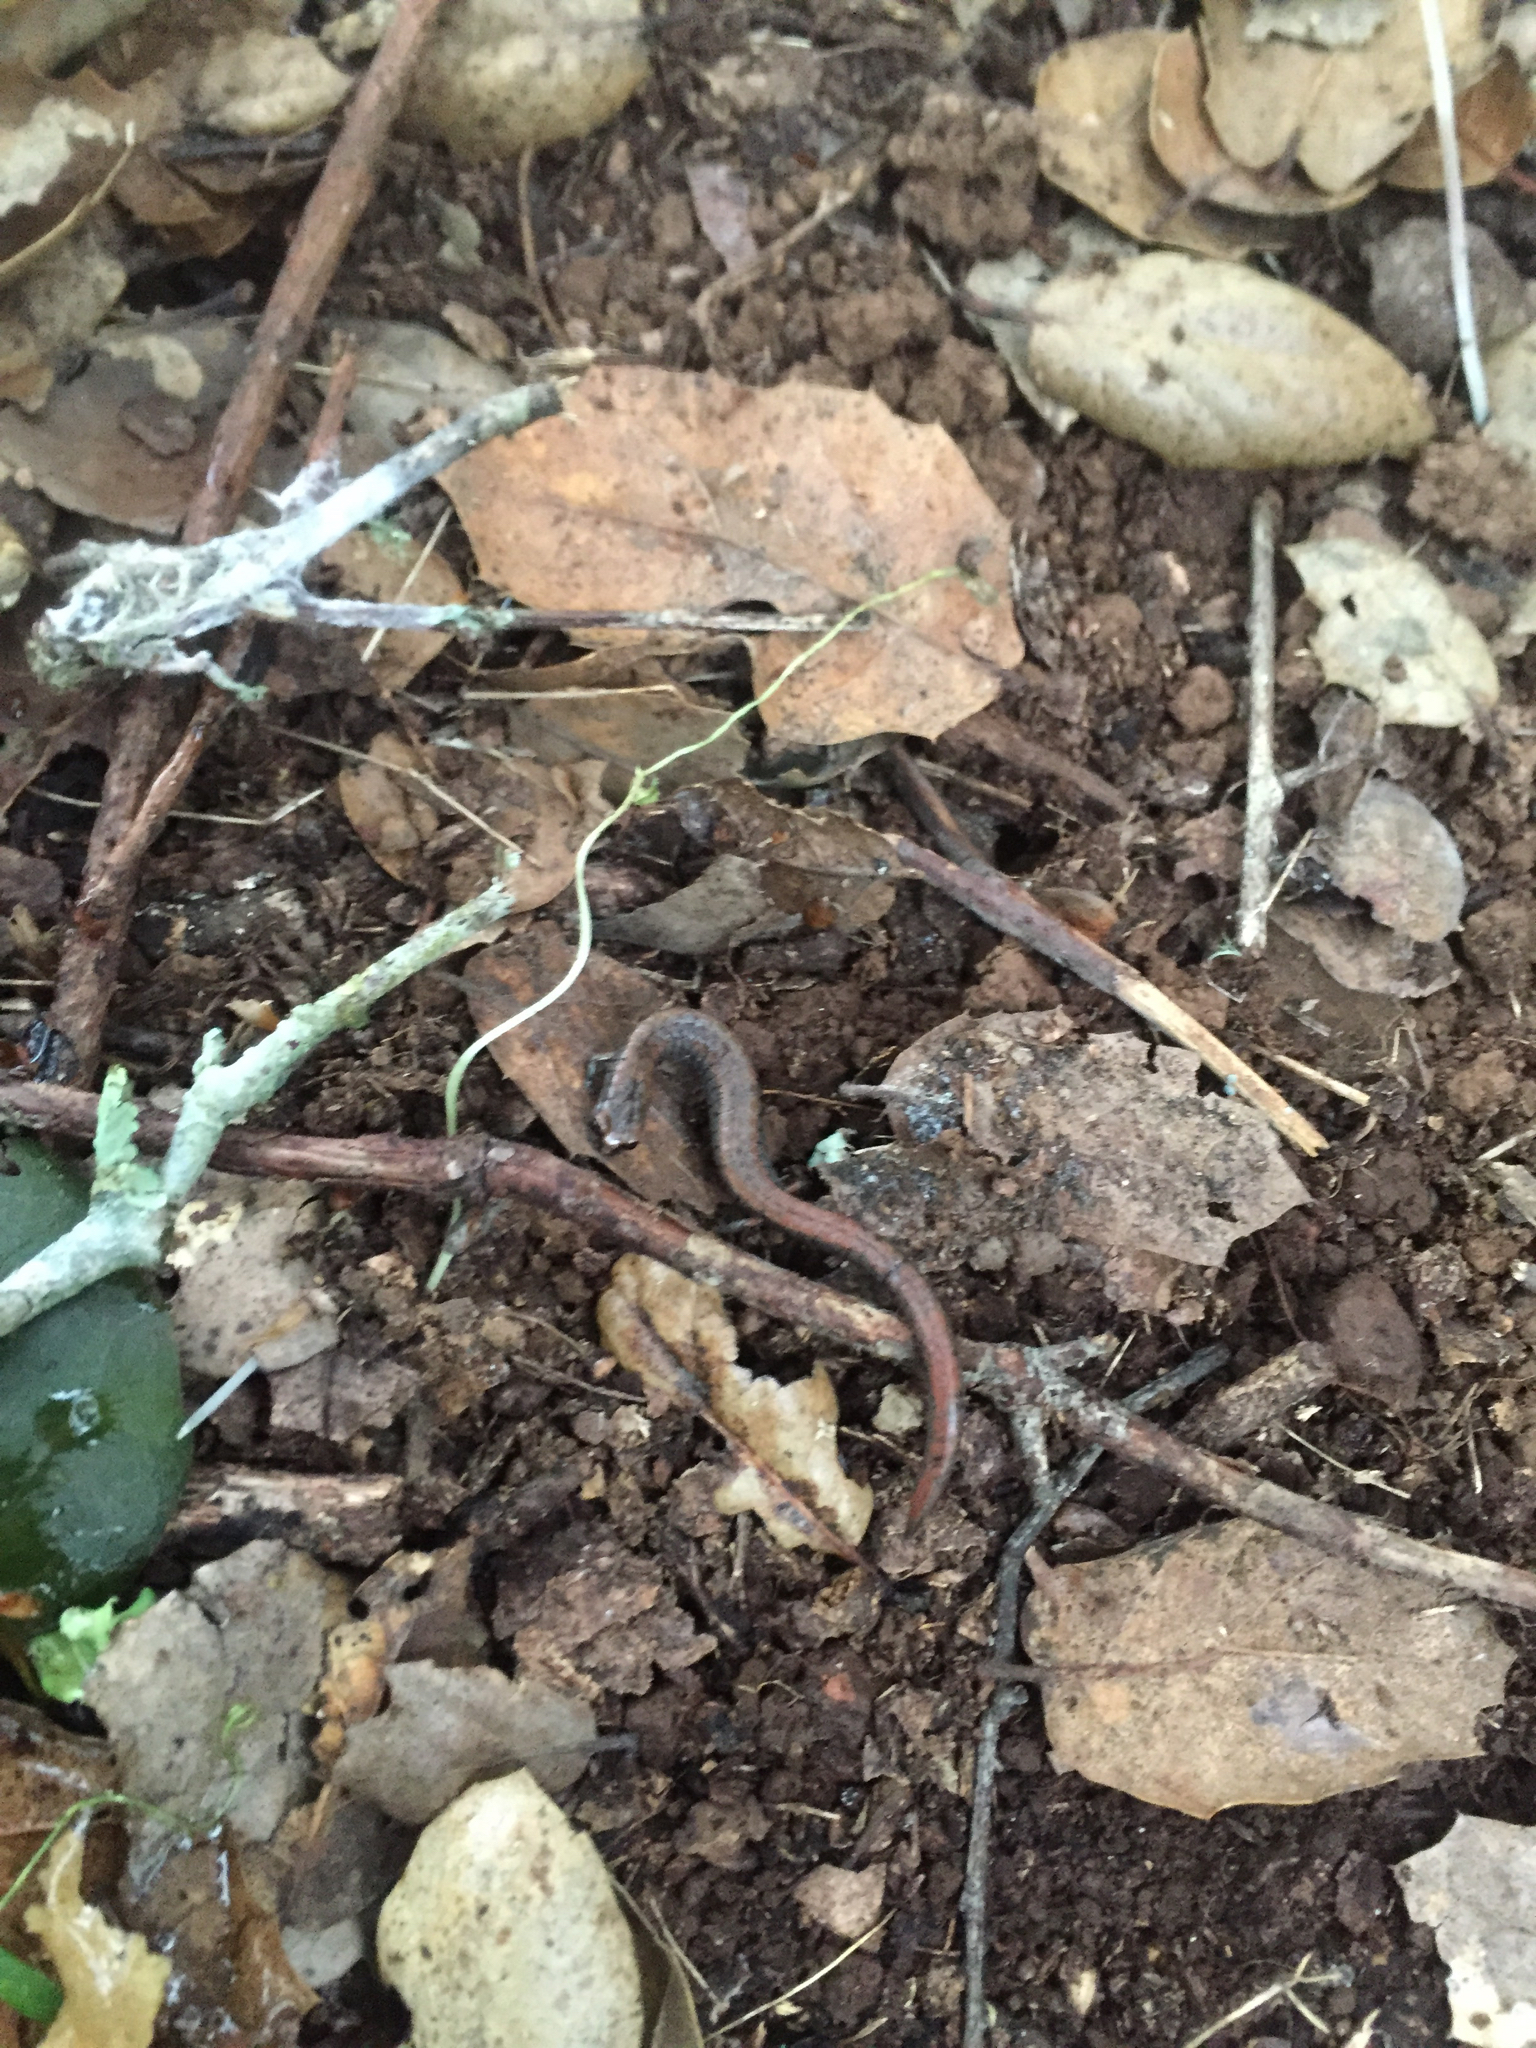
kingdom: Animalia
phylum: Chordata
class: Amphibia
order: Caudata
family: Plethodontidae
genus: Batrachoseps
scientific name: Batrachoseps attenuatus
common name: California slender salamander
